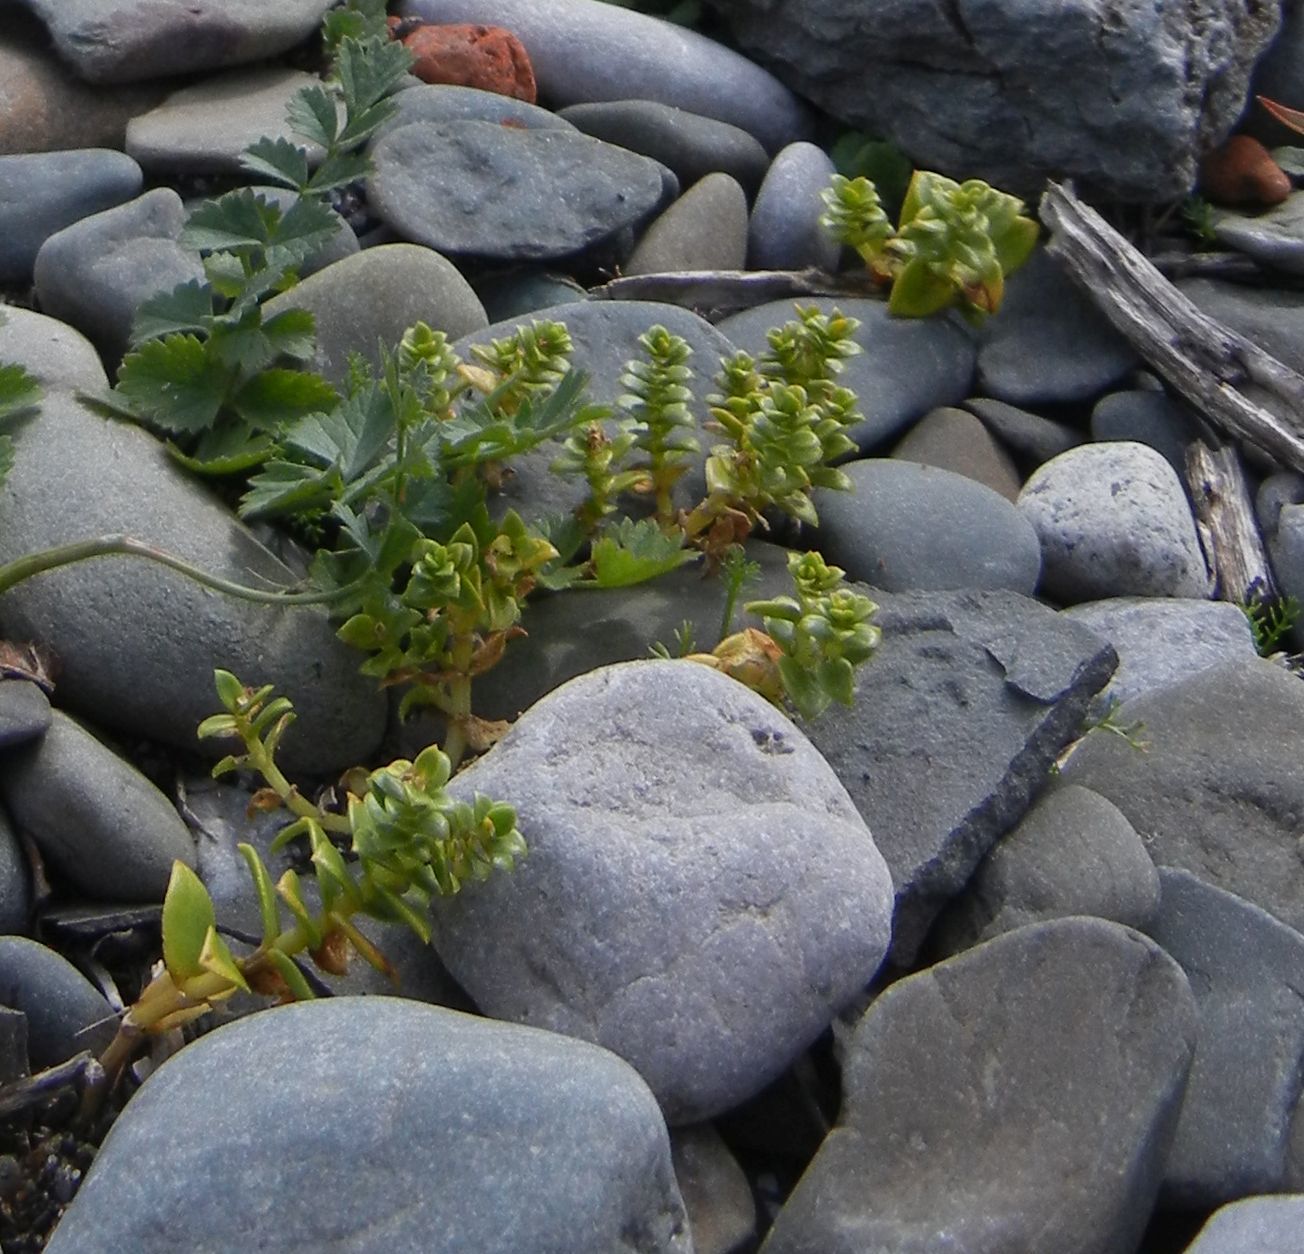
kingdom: Plantae
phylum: Tracheophyta
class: Magnoliopsida
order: Caryophyllales
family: Caryophyllaceae
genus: Honckenya
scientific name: Honckenya peploides
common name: Sea sandwort
